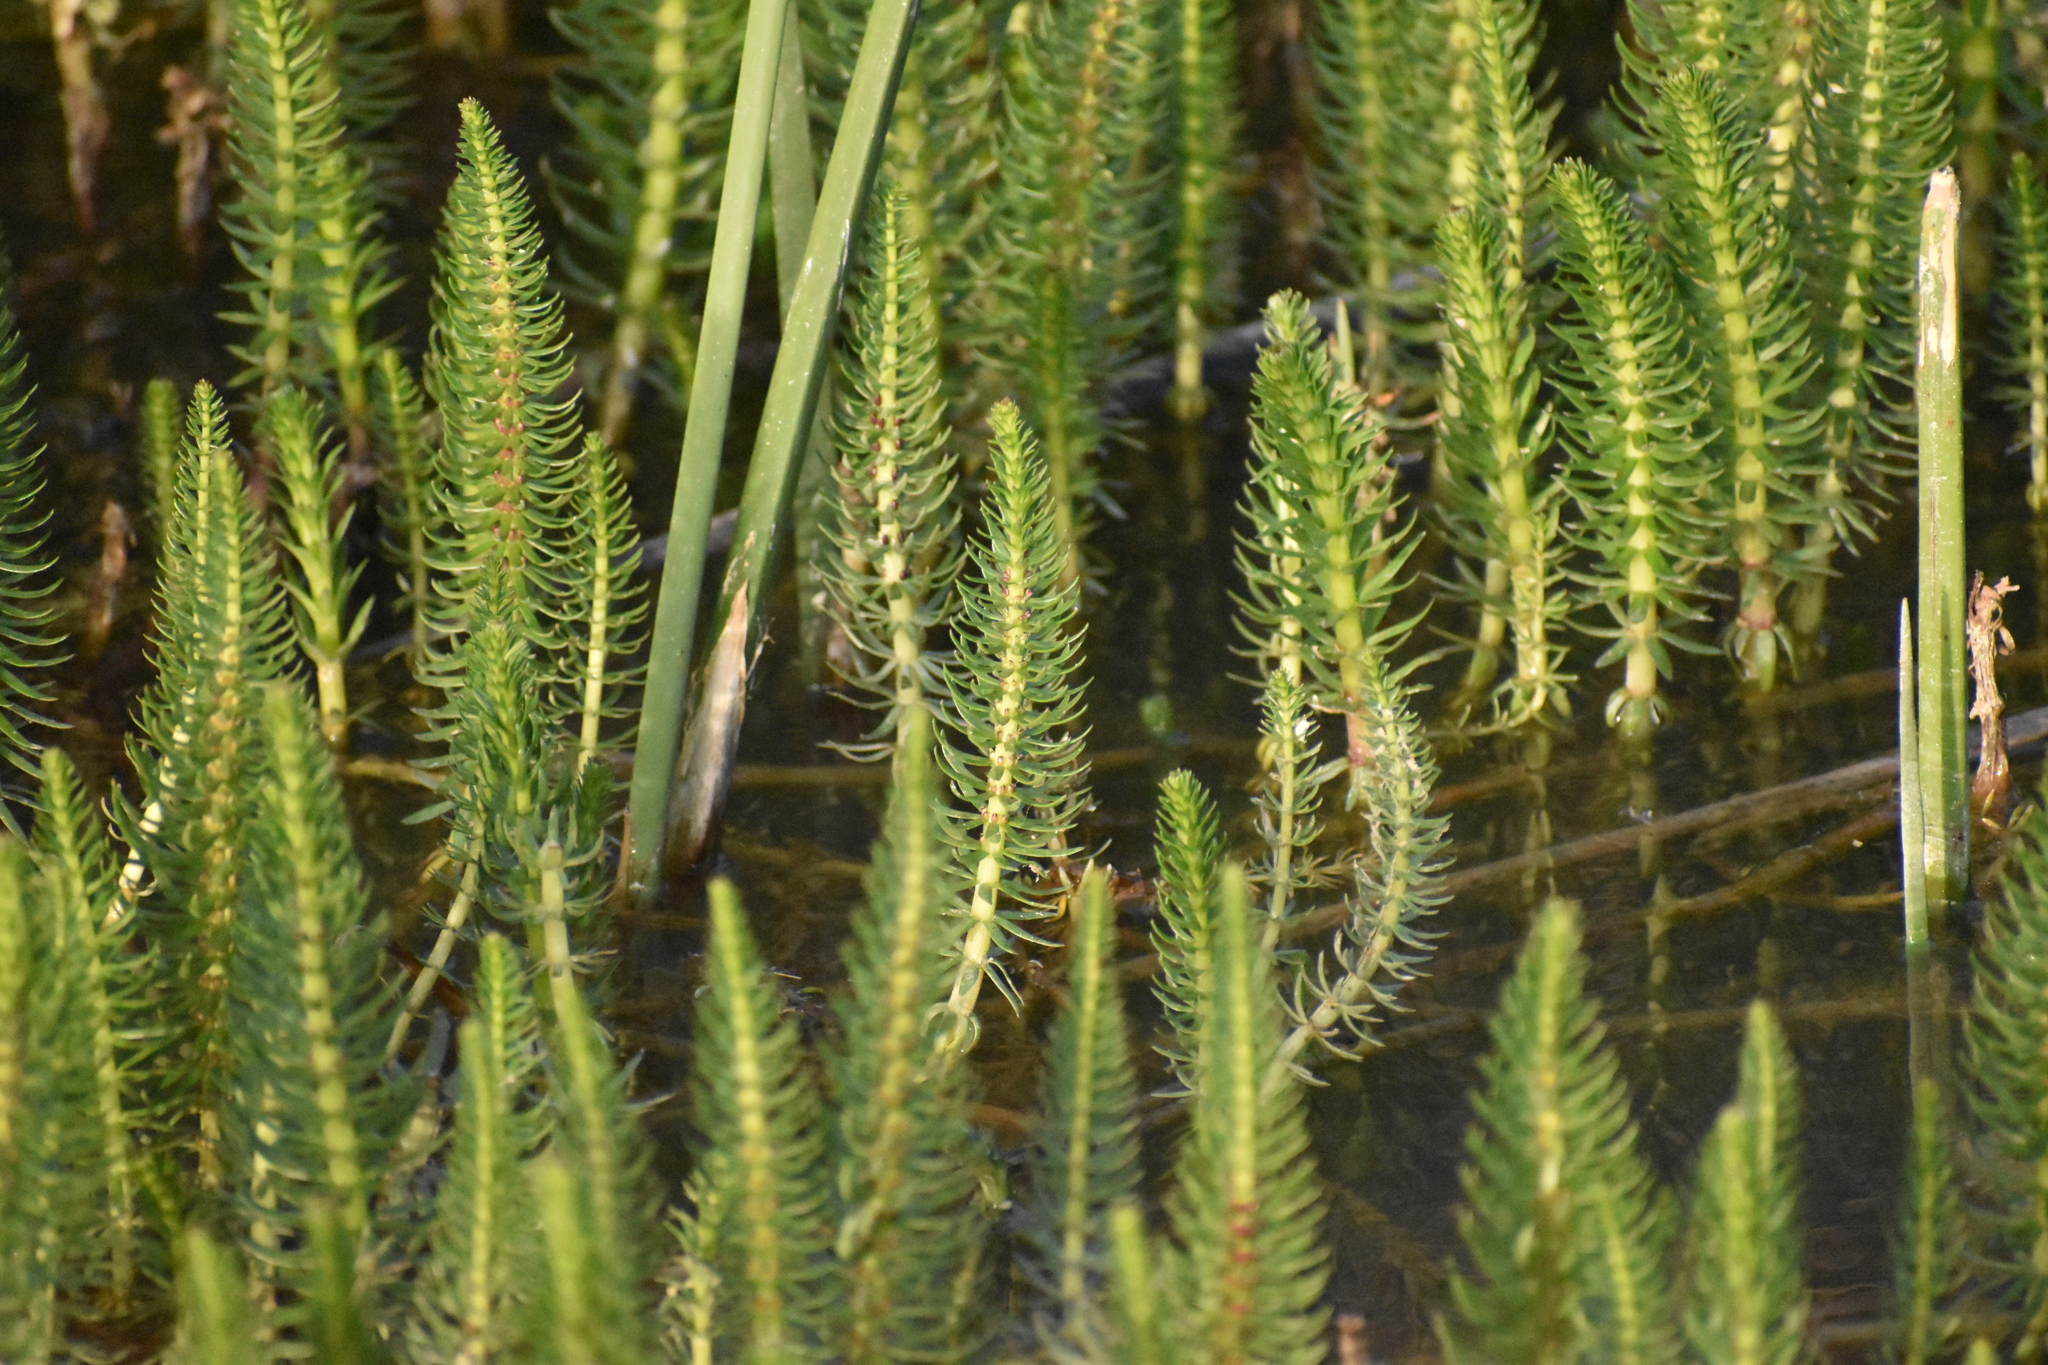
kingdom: Plantae
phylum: Tracheophyta
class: Magnoliopsida
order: Lamiales
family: Plantaginaceae
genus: Hippuris
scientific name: Hippuris vulgaris
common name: Mare's-tail
